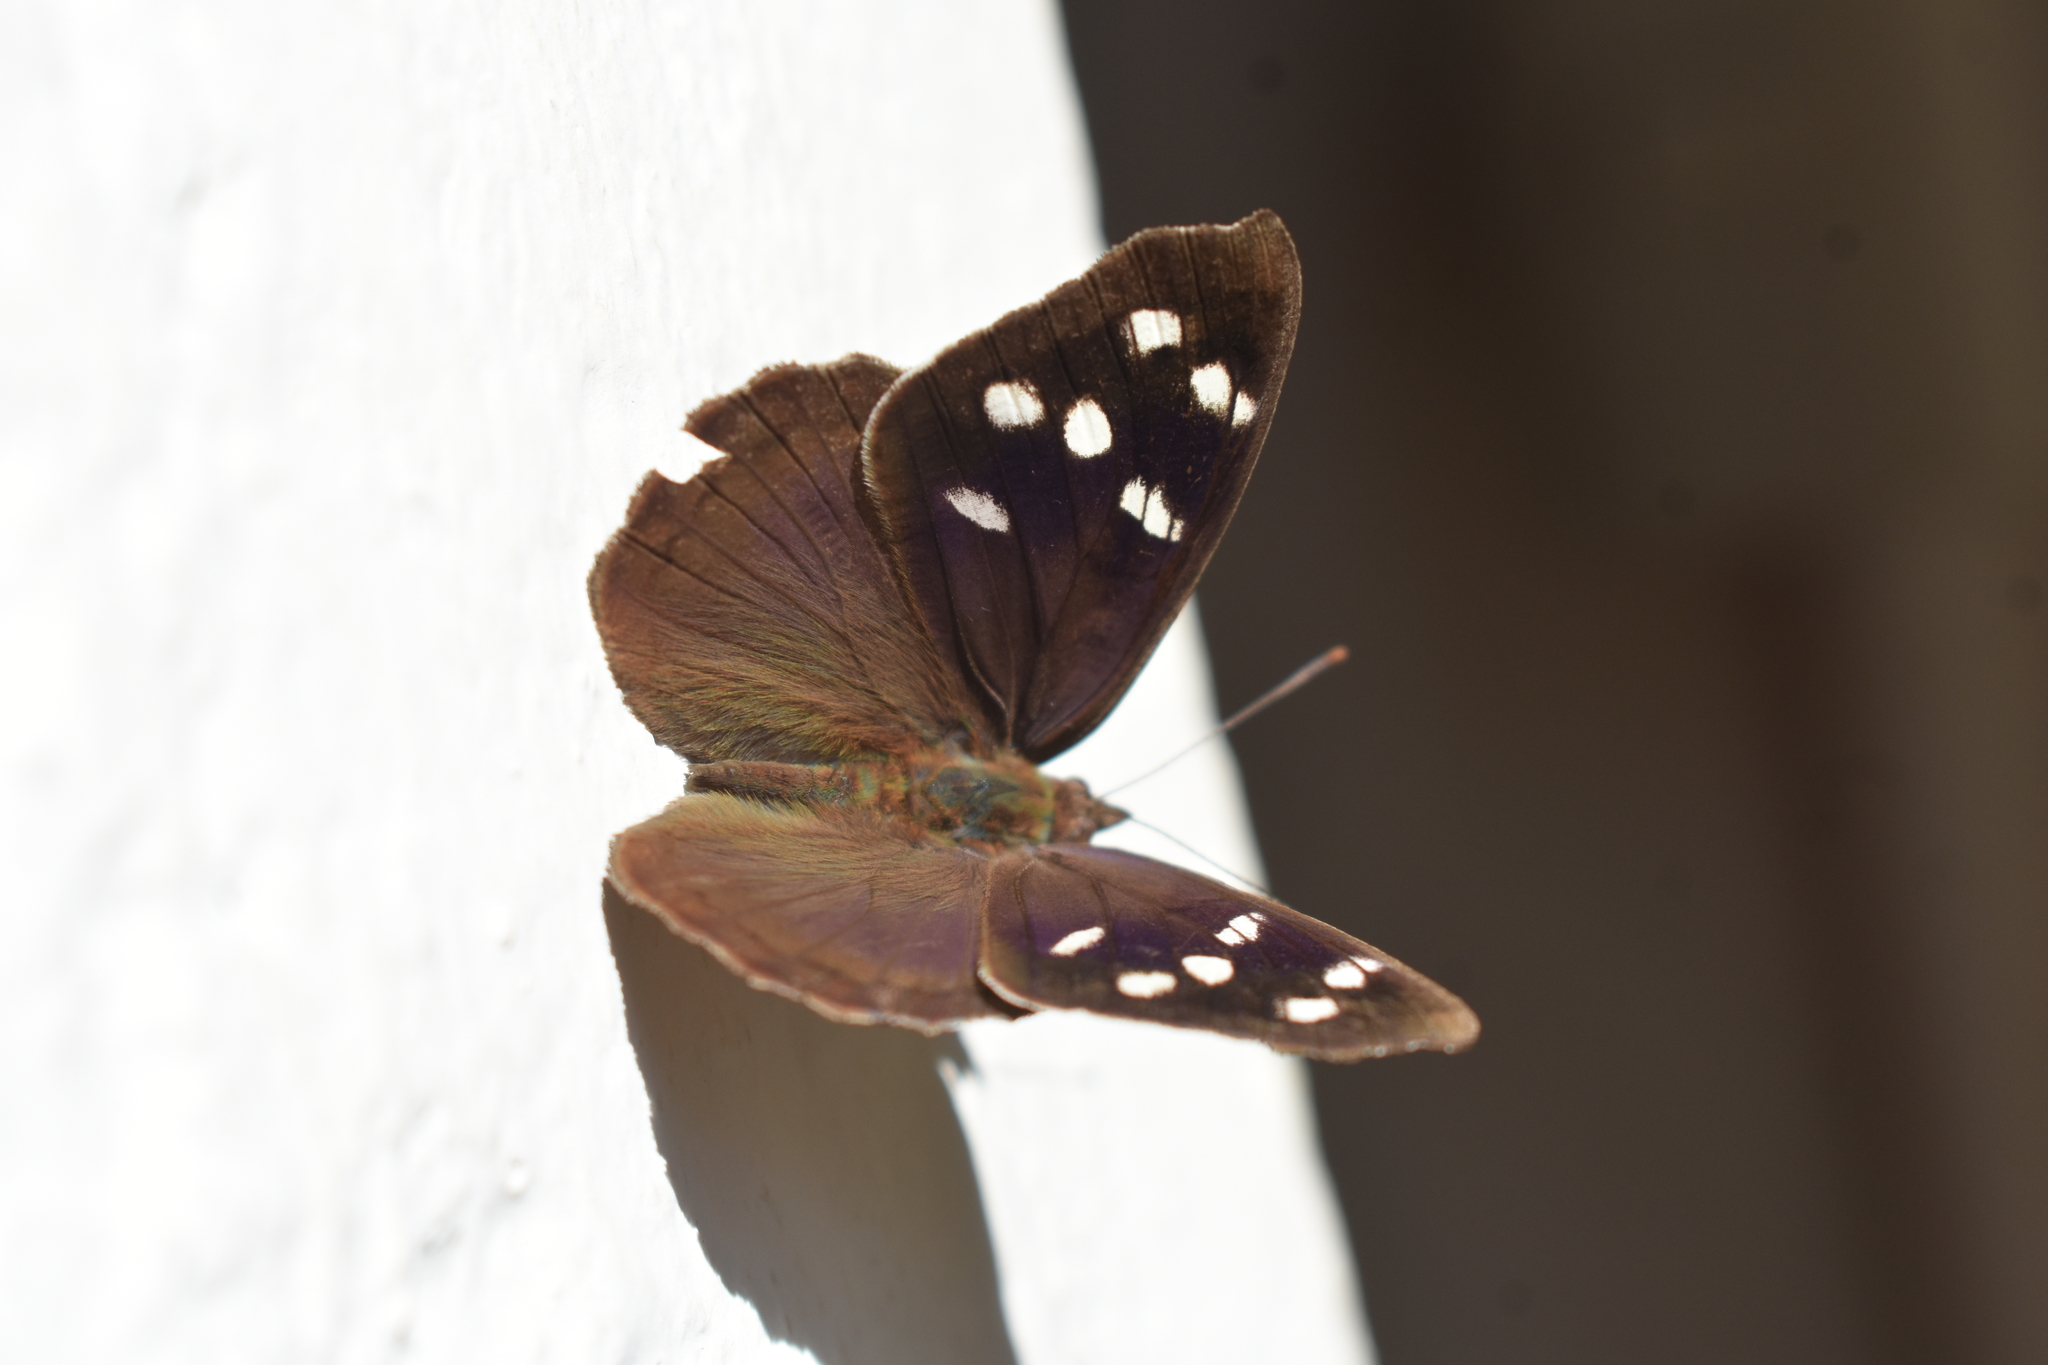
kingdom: Animalia
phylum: Arthropoda
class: Insecta
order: Lepidoptera
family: Nymphalidae
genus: Eunica
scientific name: Eunica monima
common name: Dingy purplewing
